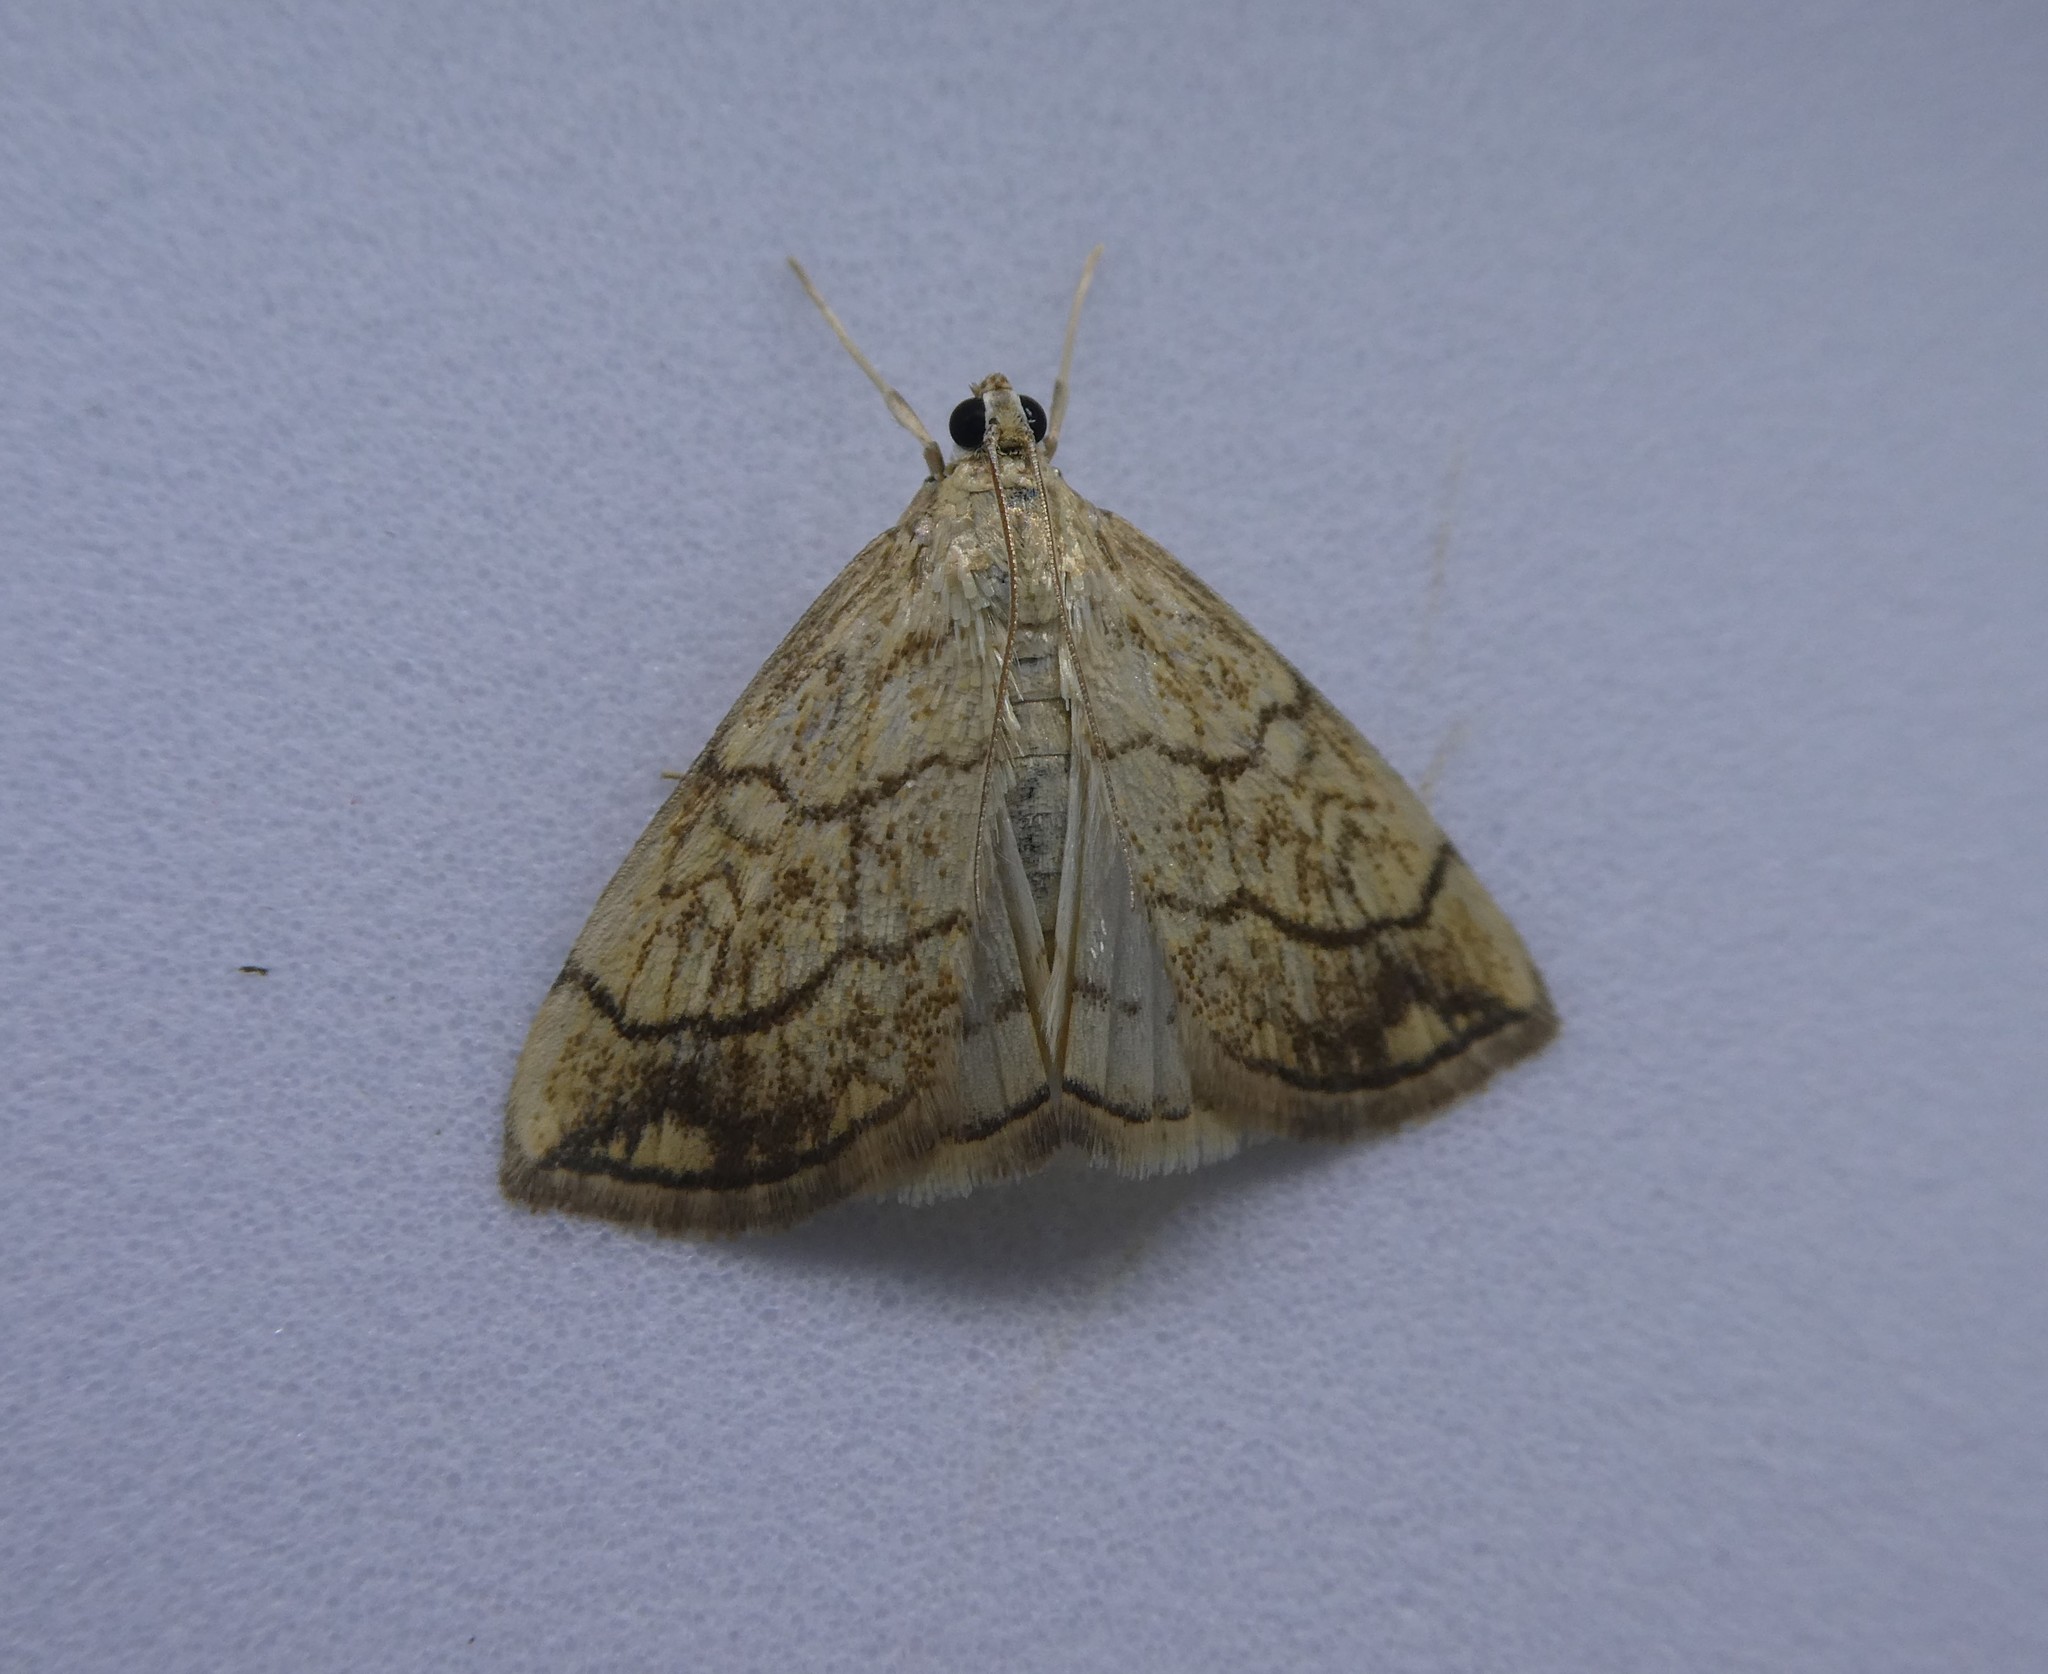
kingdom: Animalia
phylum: Arthropoda
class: Insecta
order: Lepidoptera
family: Crambidae
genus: Evergestis
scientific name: Evergestis pallidata
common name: Chequered pearl
